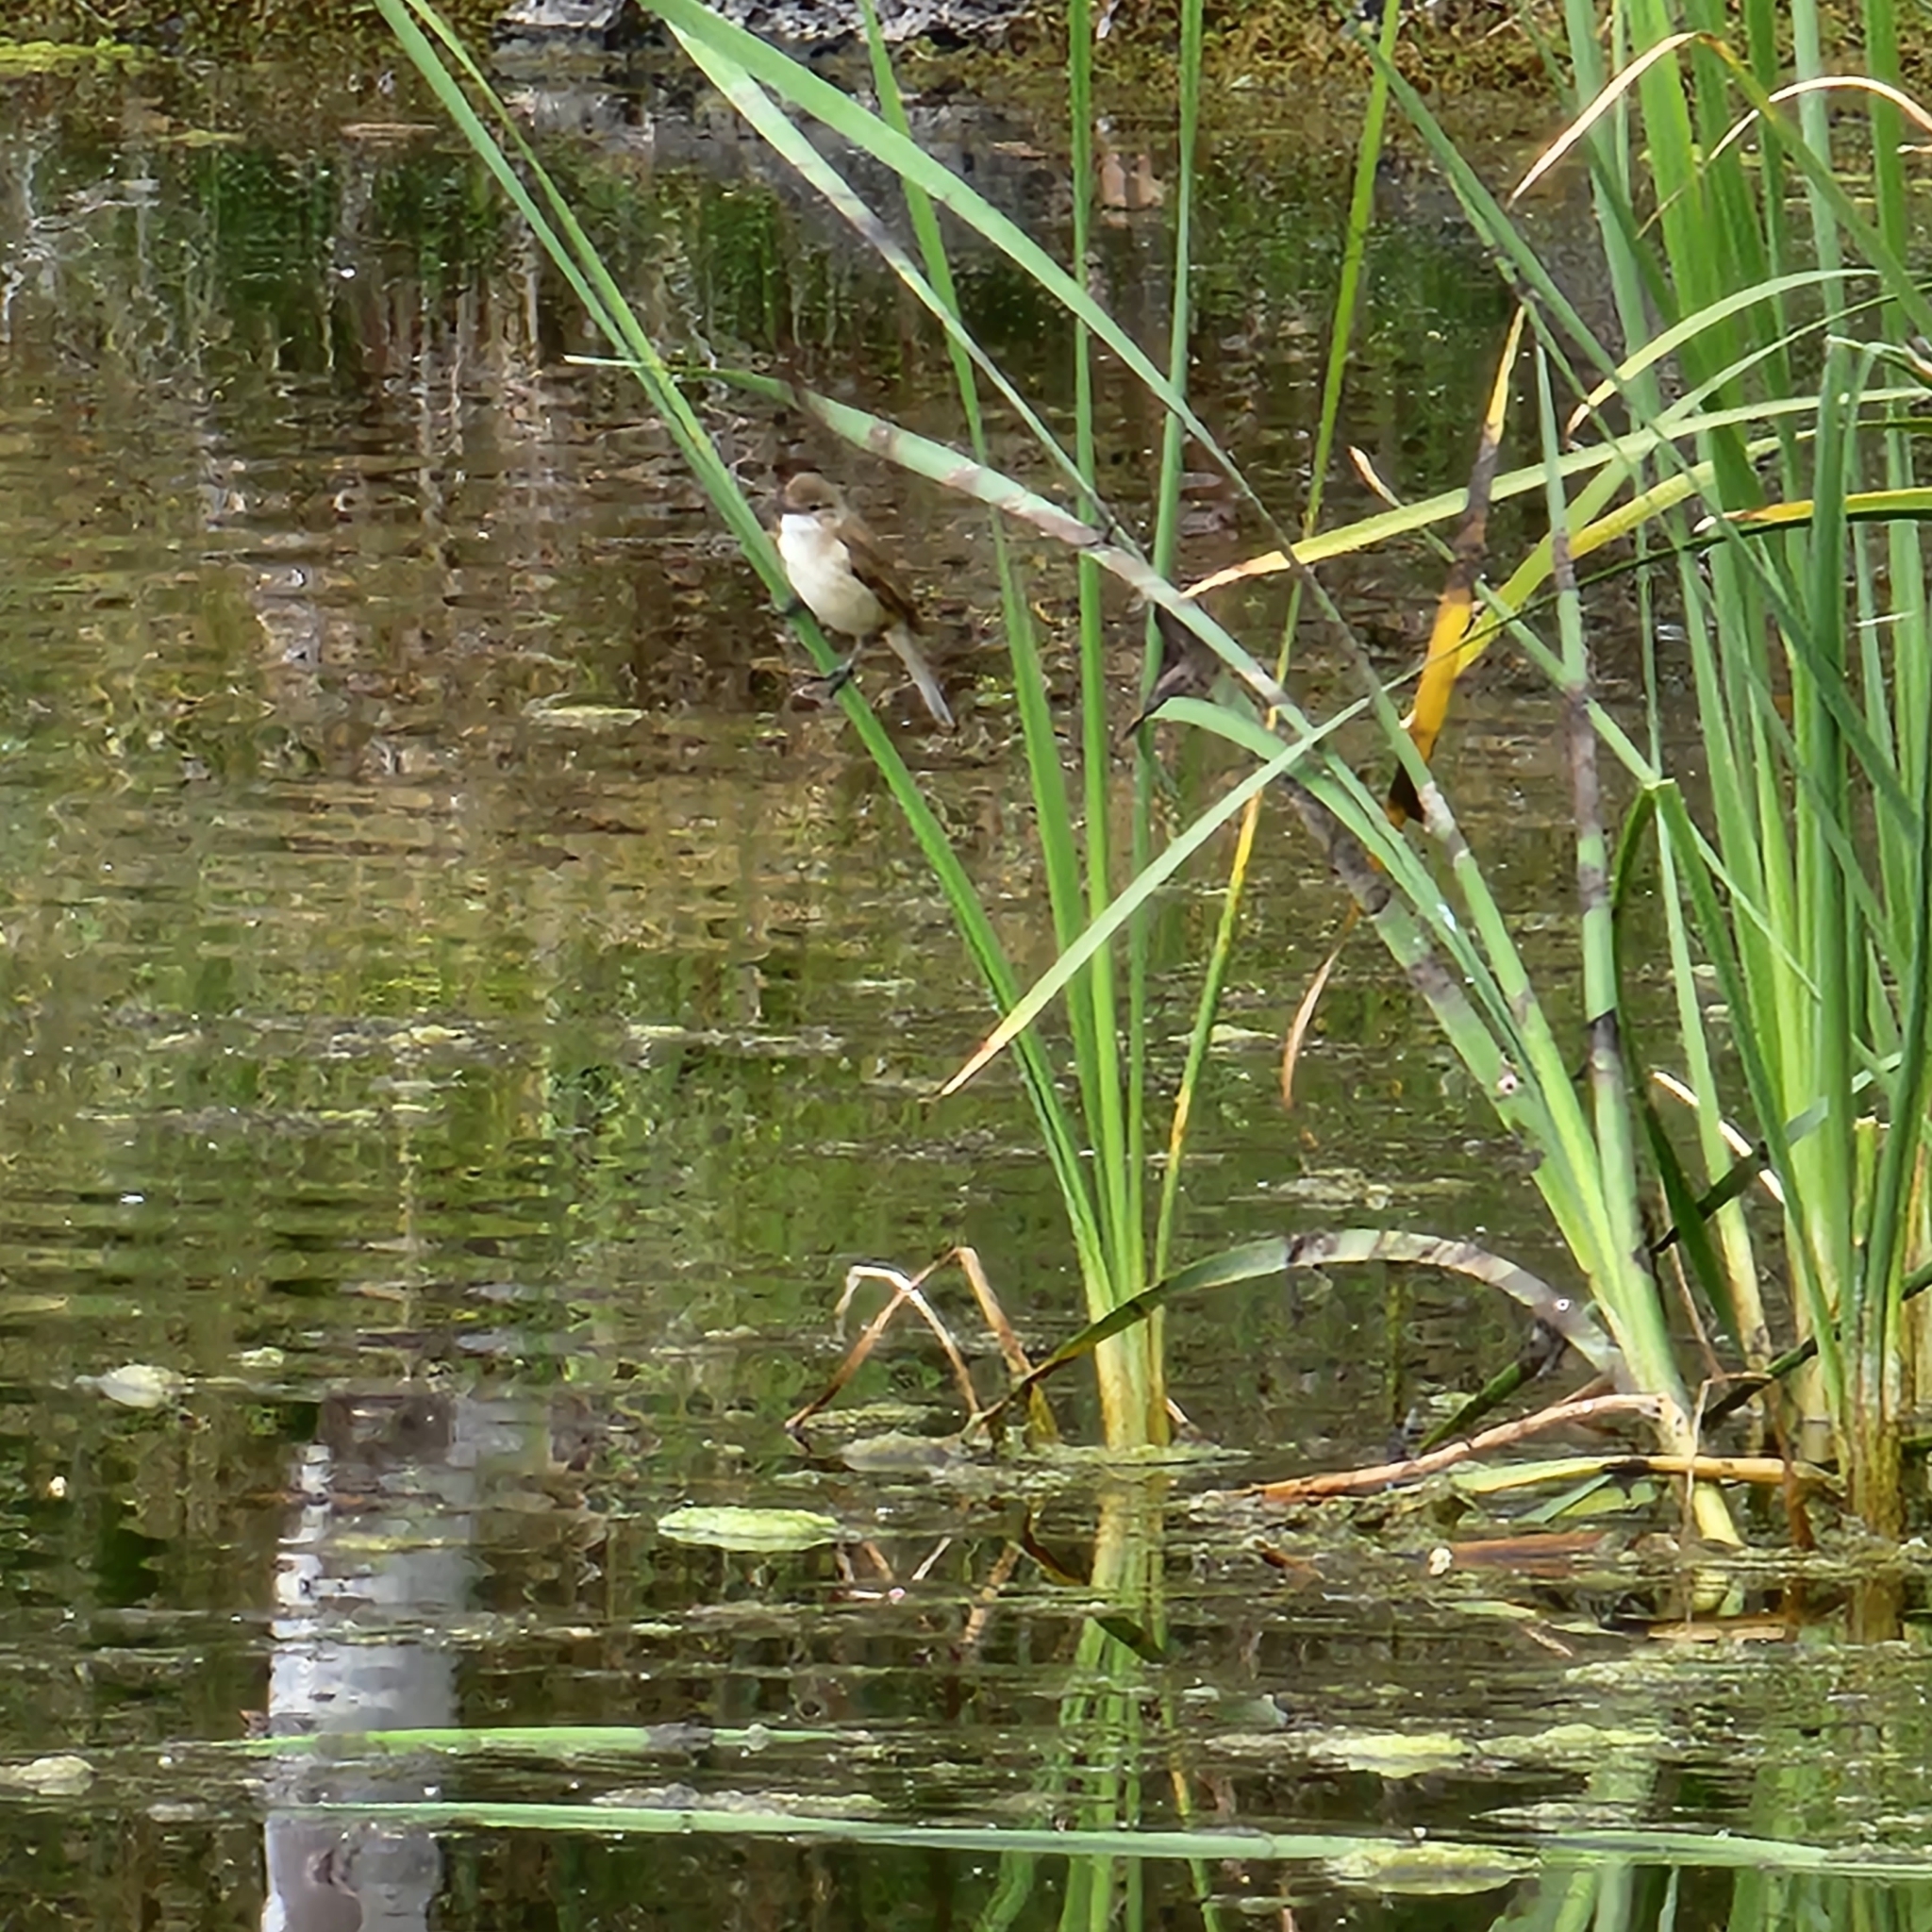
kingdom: Animalia
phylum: Chordata
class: Aves
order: Passeriformes
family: Acrocephalidae
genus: Acrocephalus
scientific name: Acrocephalus australis
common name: Australian reed warbler
